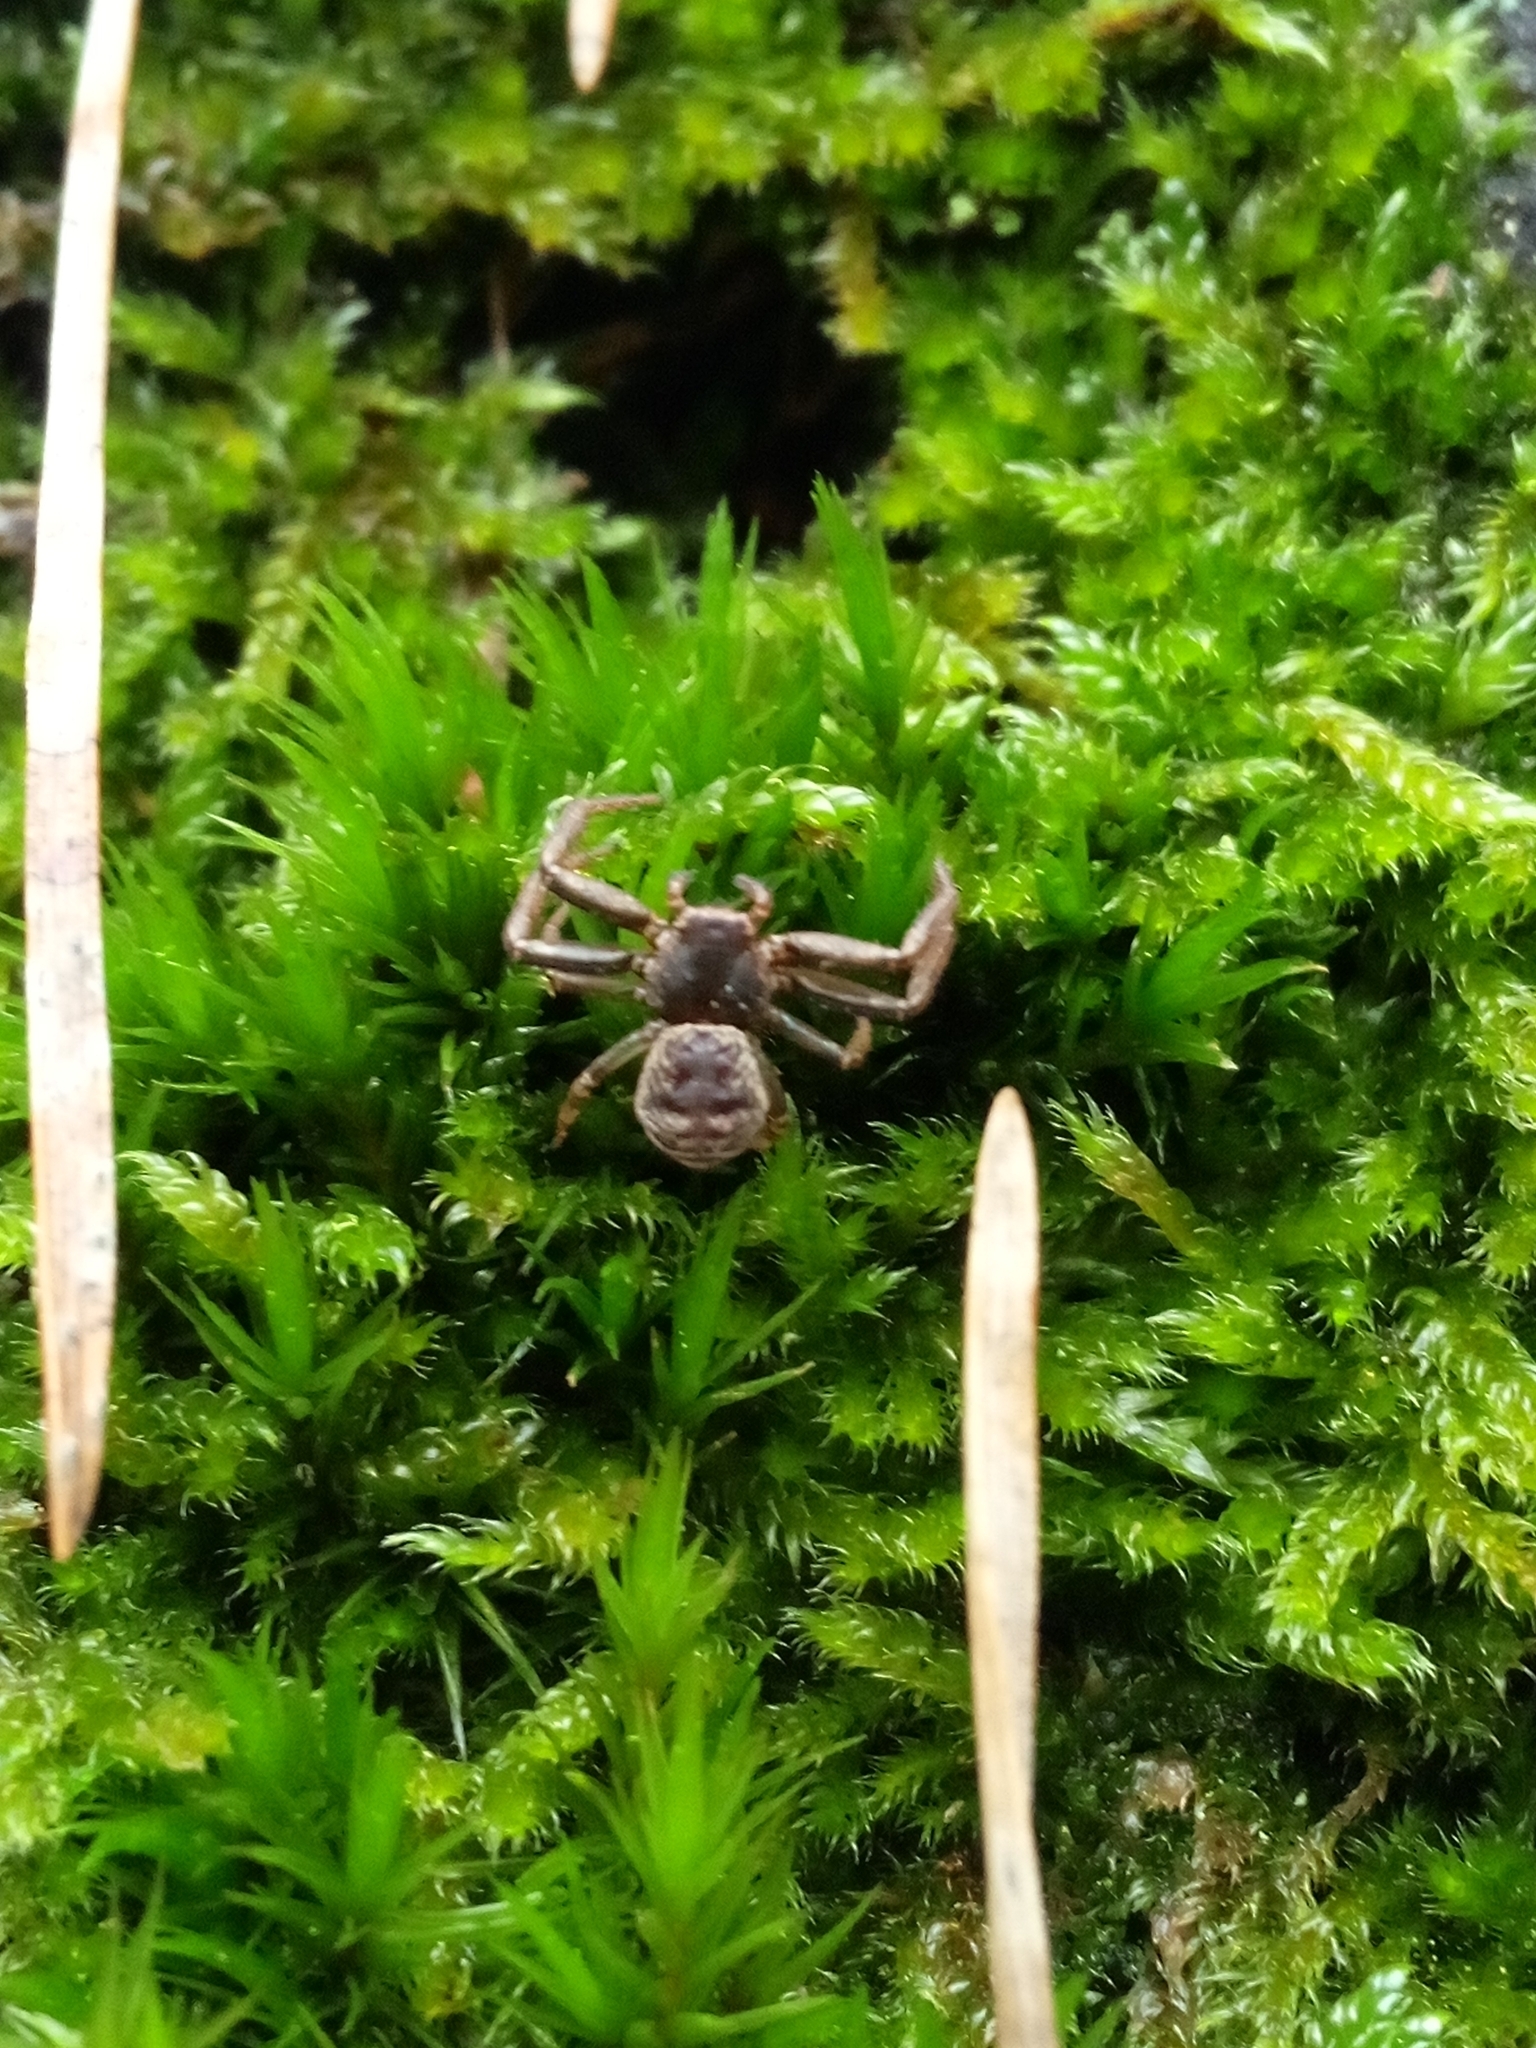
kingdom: Animalia
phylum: Arthropoda
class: Arachnida
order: Araneae
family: Thomisidae
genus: Coriarachne
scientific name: Coriarachne depressa
